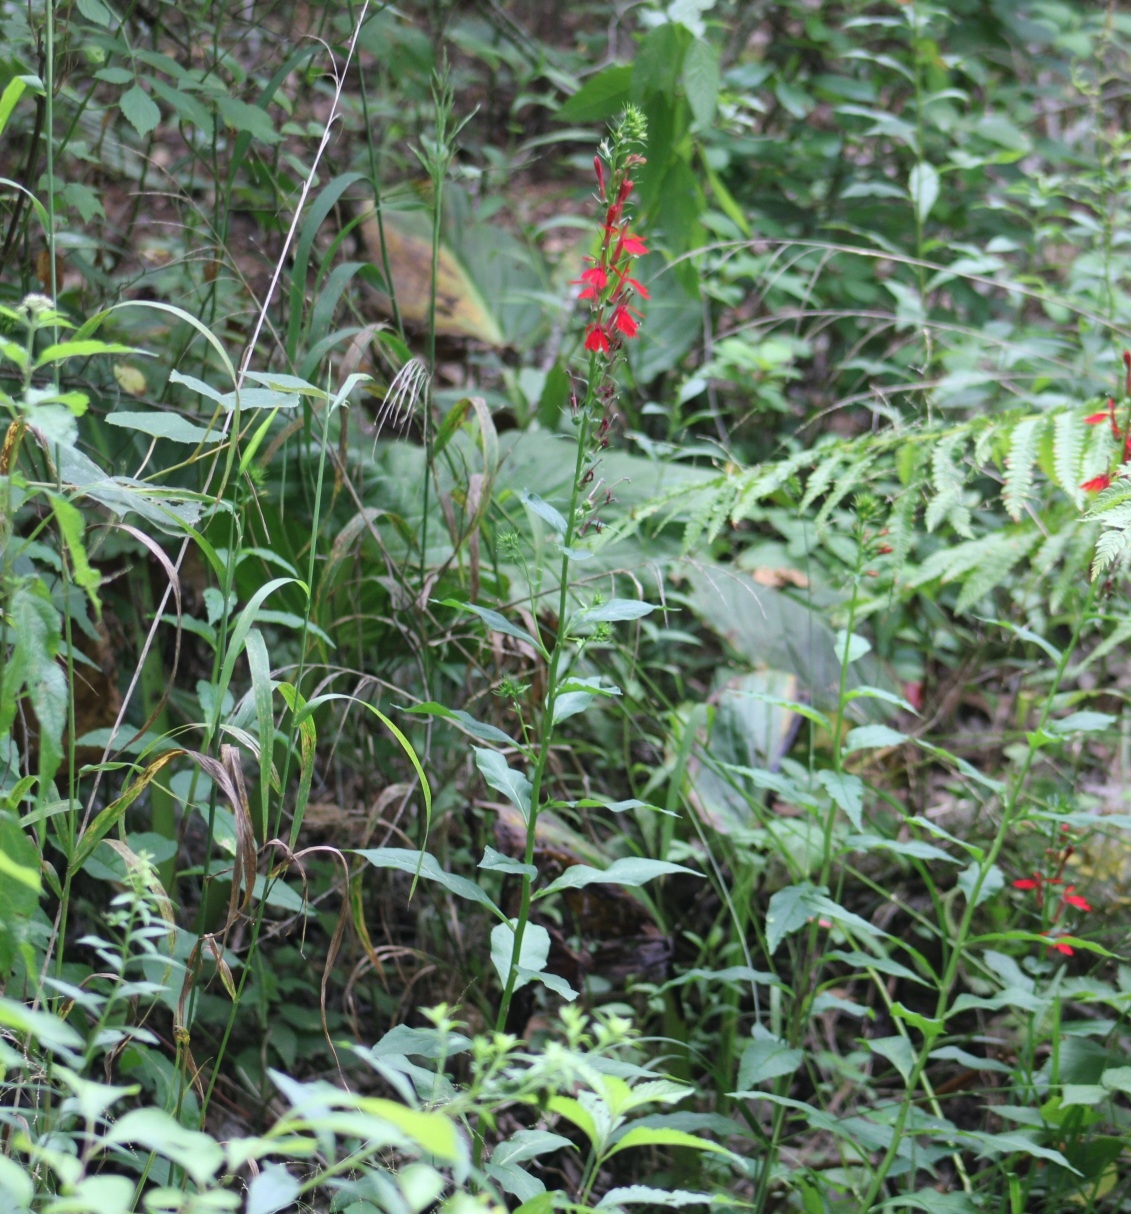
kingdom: Plantae
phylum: Tracheophyta
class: Magnoliopsida
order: Asterales
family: Campanulaceae
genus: Lobelia
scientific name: Lobelia cardinalis
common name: Cardinal flower
